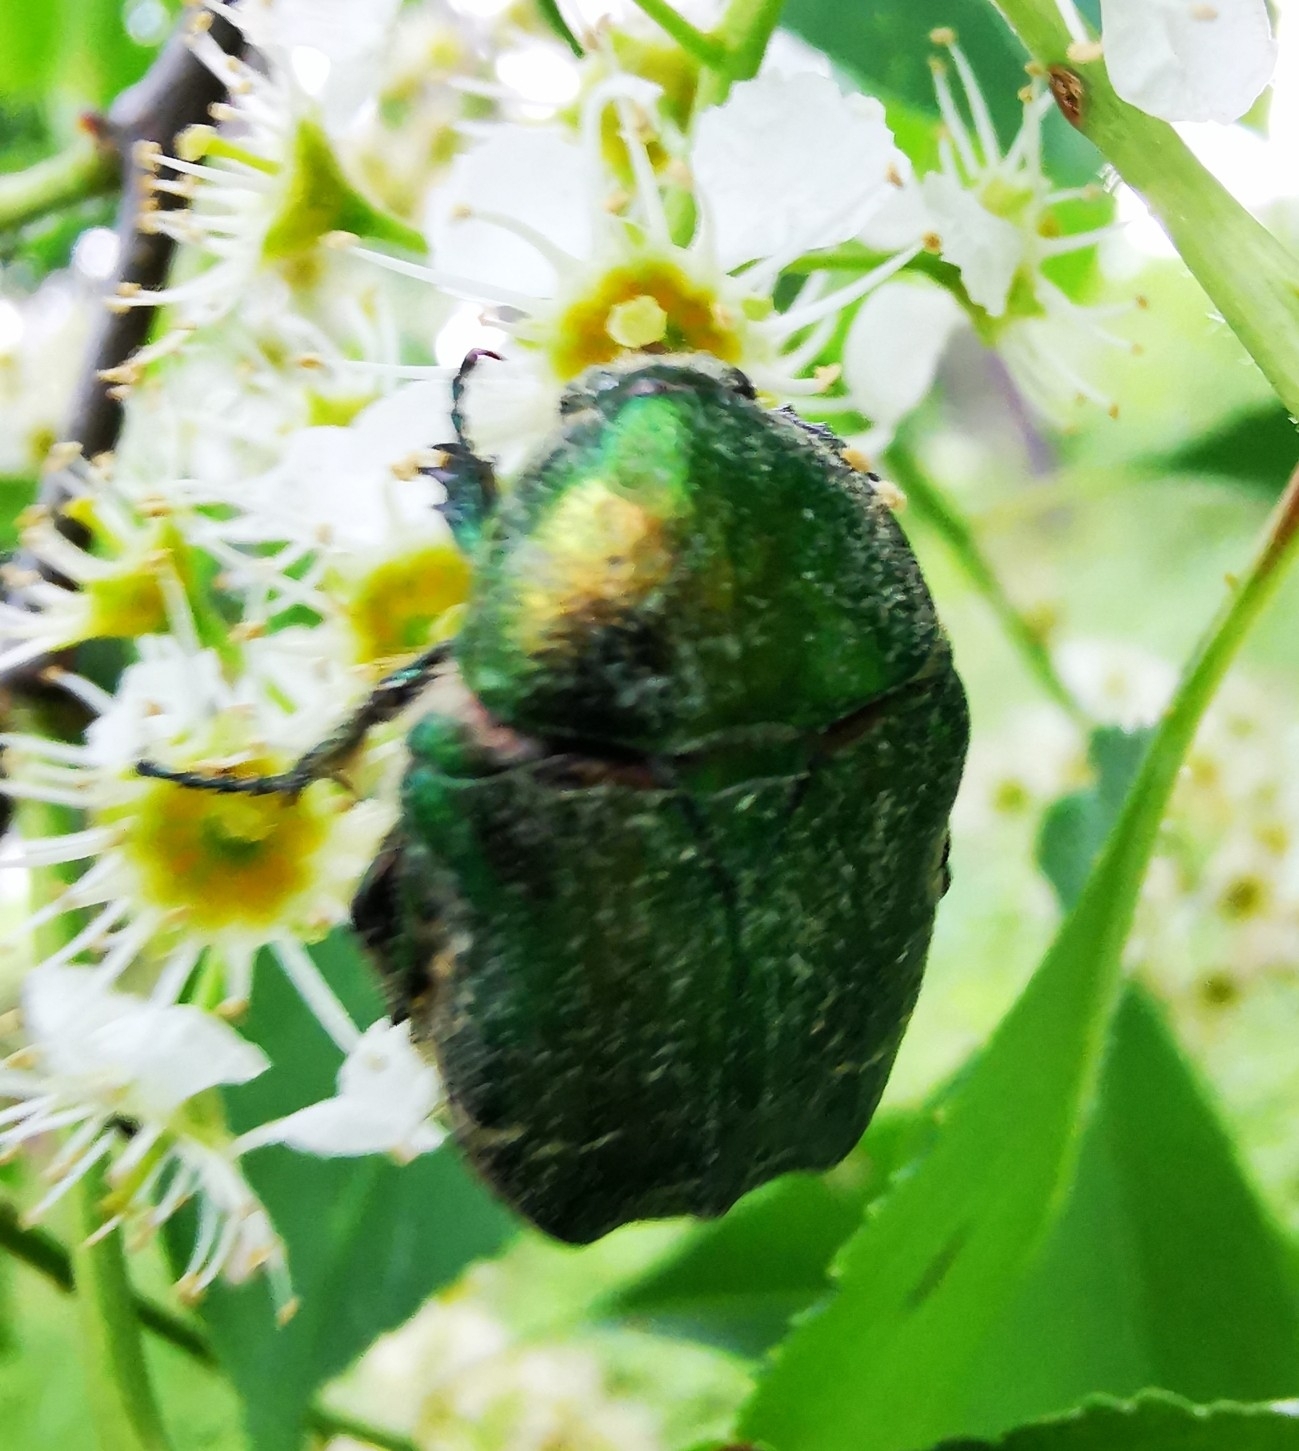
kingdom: Animalia
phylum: Arthropoda
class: Insecta
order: Coleoptera
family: Scarabaeidae
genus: Cetonia
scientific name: Cetonia aurata
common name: Rose chafer
